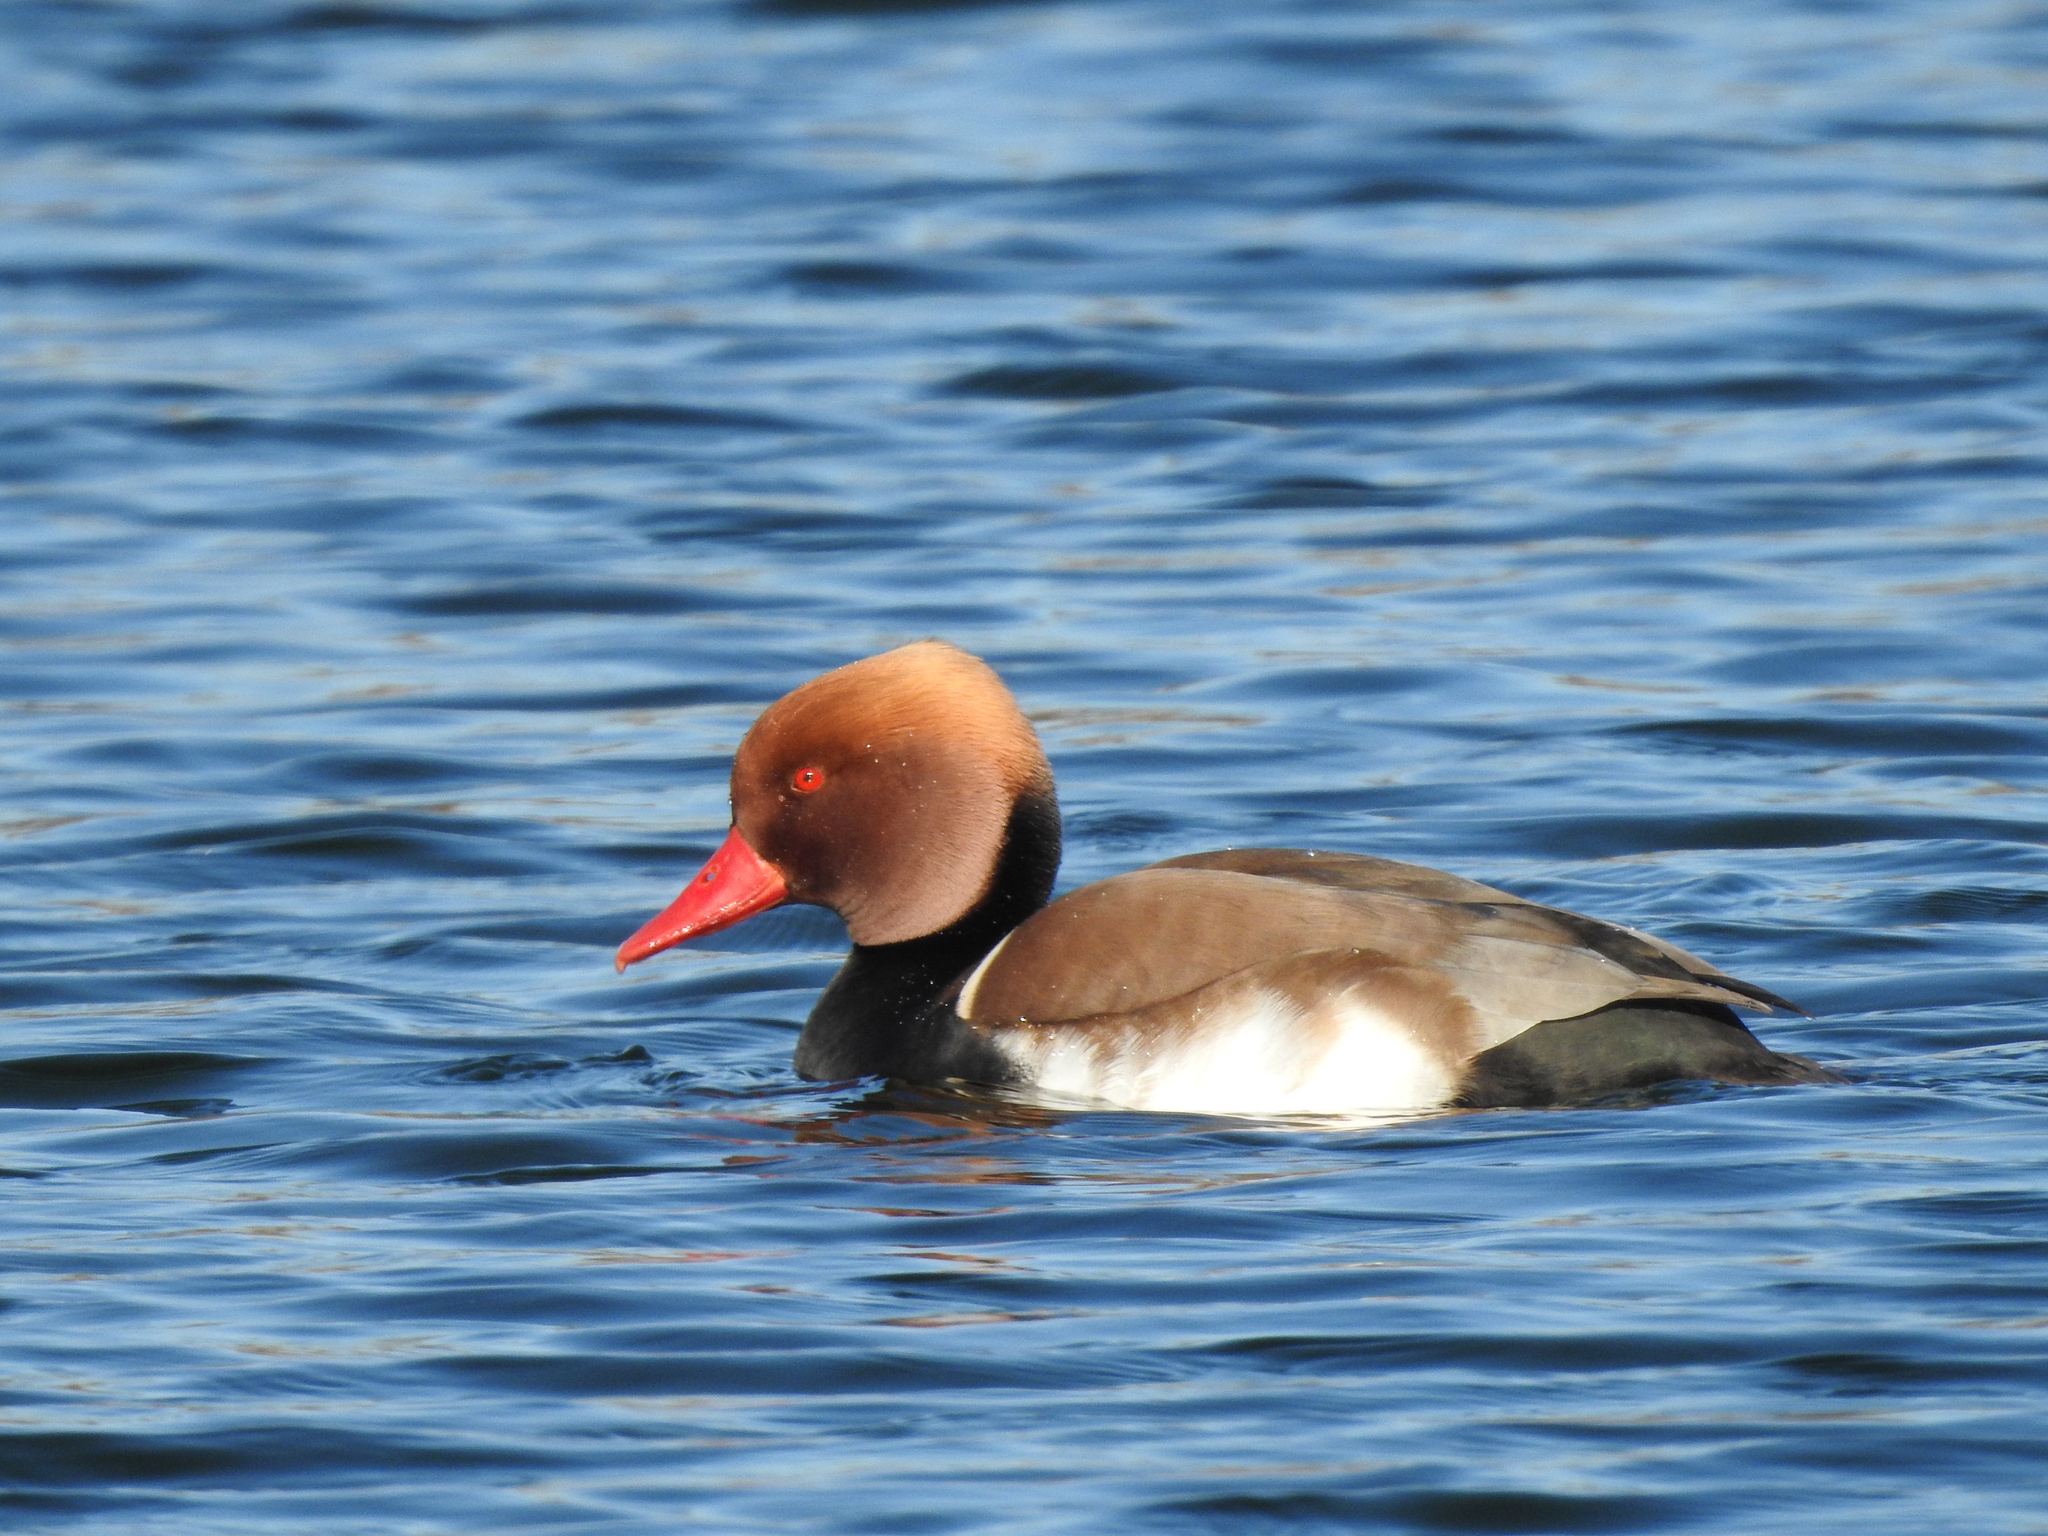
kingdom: Animalia
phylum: Chordata
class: Aves
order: Anseriformes
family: Anatidae
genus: Netta
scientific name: Netta rufina
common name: Red-crested pochard
